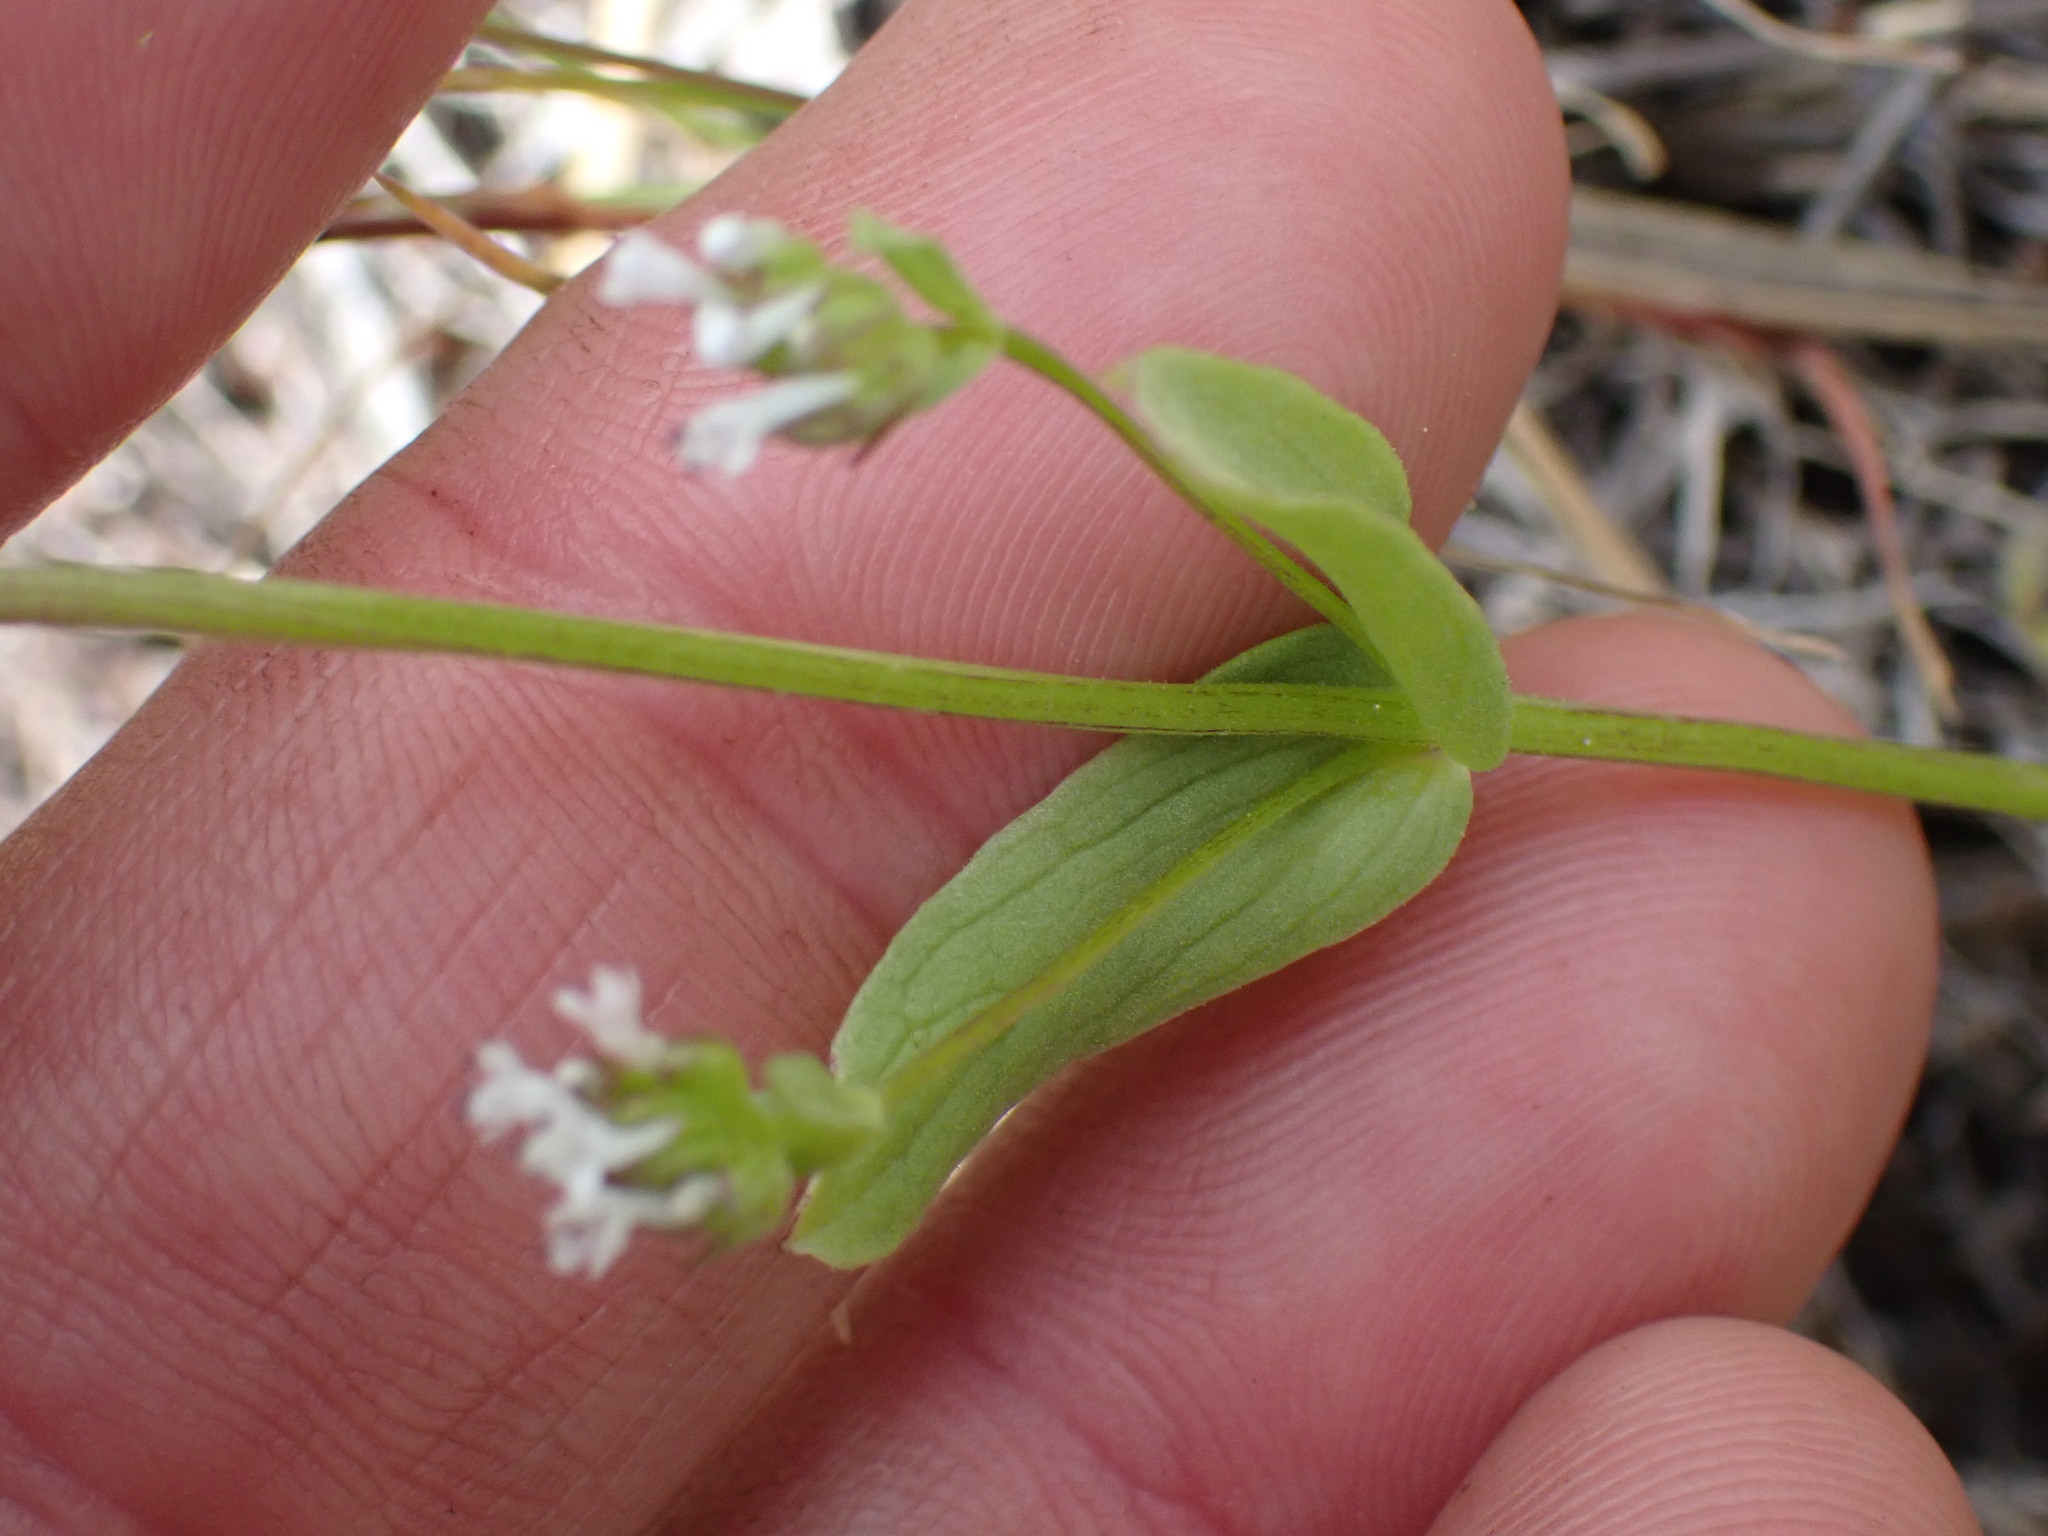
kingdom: Plantae
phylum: Tracheophyta
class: Magnoliopsida
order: Dipsacales
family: Caprifoliaceae
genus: Plectritis
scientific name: Plectritis macroptera
